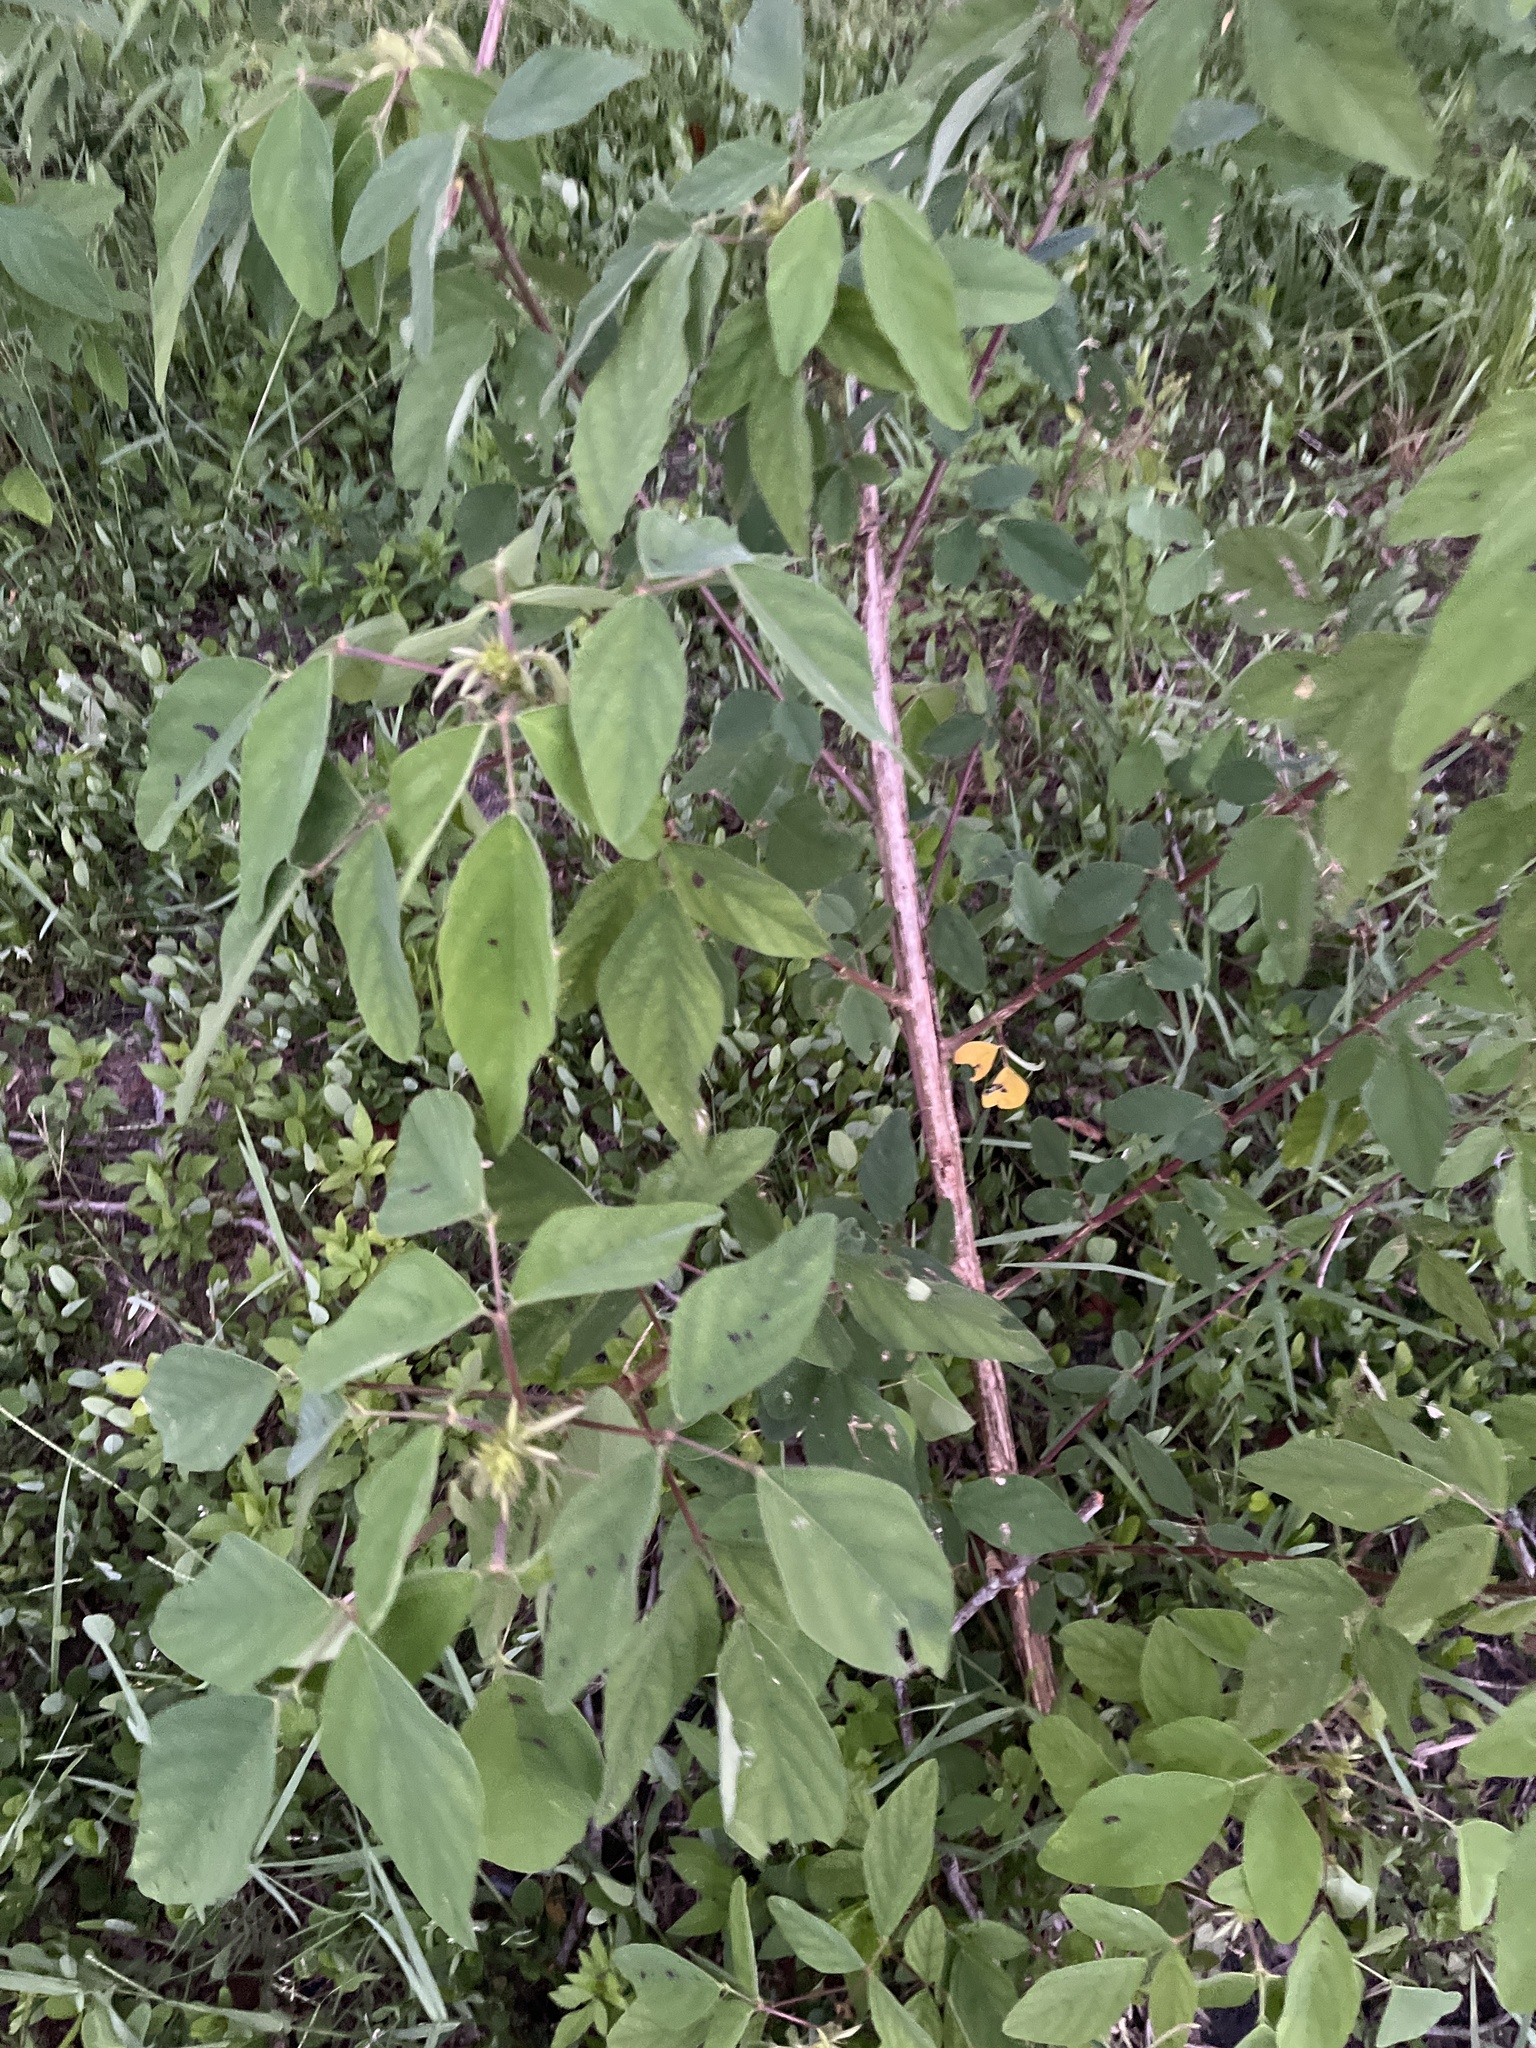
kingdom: Plantae
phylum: Tracheophyta
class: Magnoliopsida
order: Fabales
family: Fabaceae
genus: Desmodium
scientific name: Desmodium tortuosum
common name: Dixie ticktrefoil
